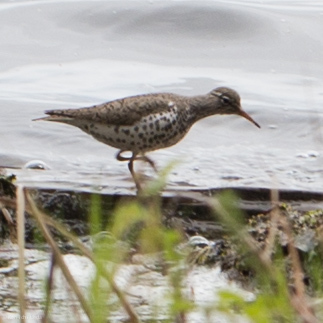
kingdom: Animalia
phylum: Chordata
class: Aves
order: Charadriiformes
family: Scolopacidae
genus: Actitis
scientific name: Actitis macularius
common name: Spotted sandpiper
